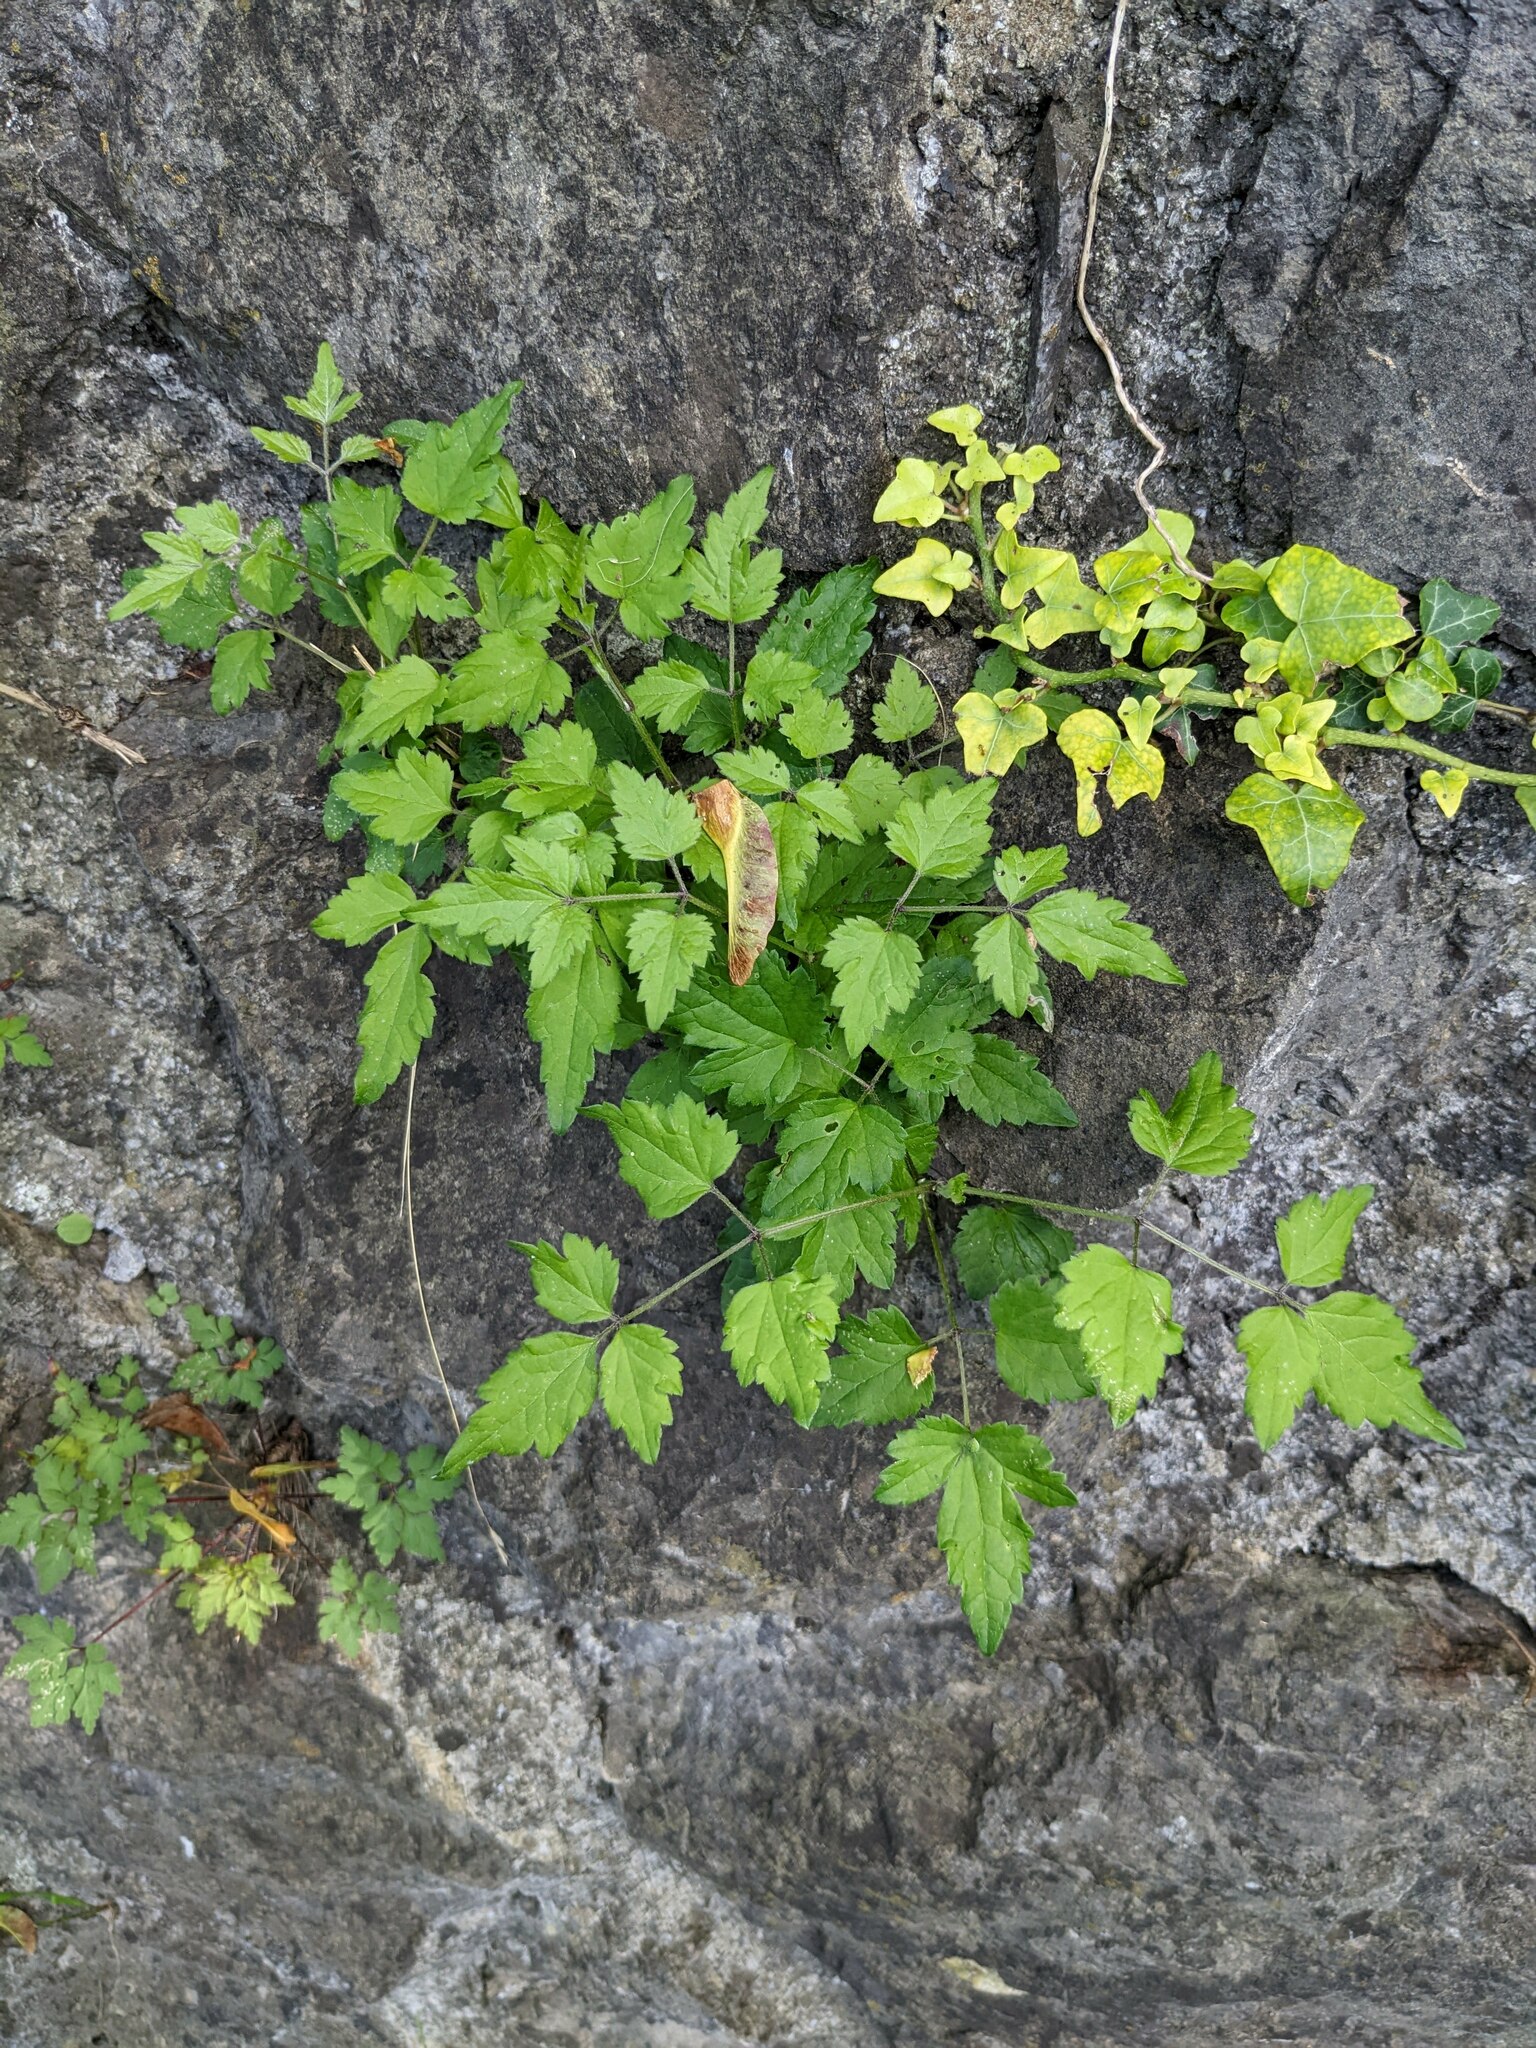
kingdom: Plantae
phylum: Tracheophyta
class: Magnoliopsida
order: Ranunculales
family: Ranunculaceae
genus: Clematis
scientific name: Clematis vitalba
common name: Evergreen clematis
